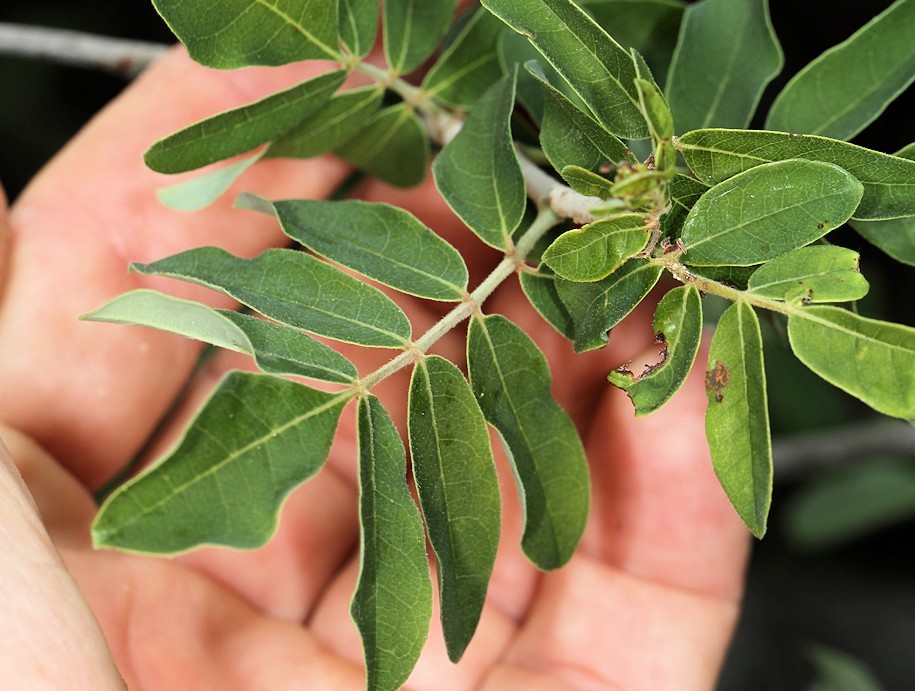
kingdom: Plantae
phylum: Tracheophyta
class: Magnoliopsida
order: Sapindales
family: Burseraceae
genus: Commiphora
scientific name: Commiphora mollis
